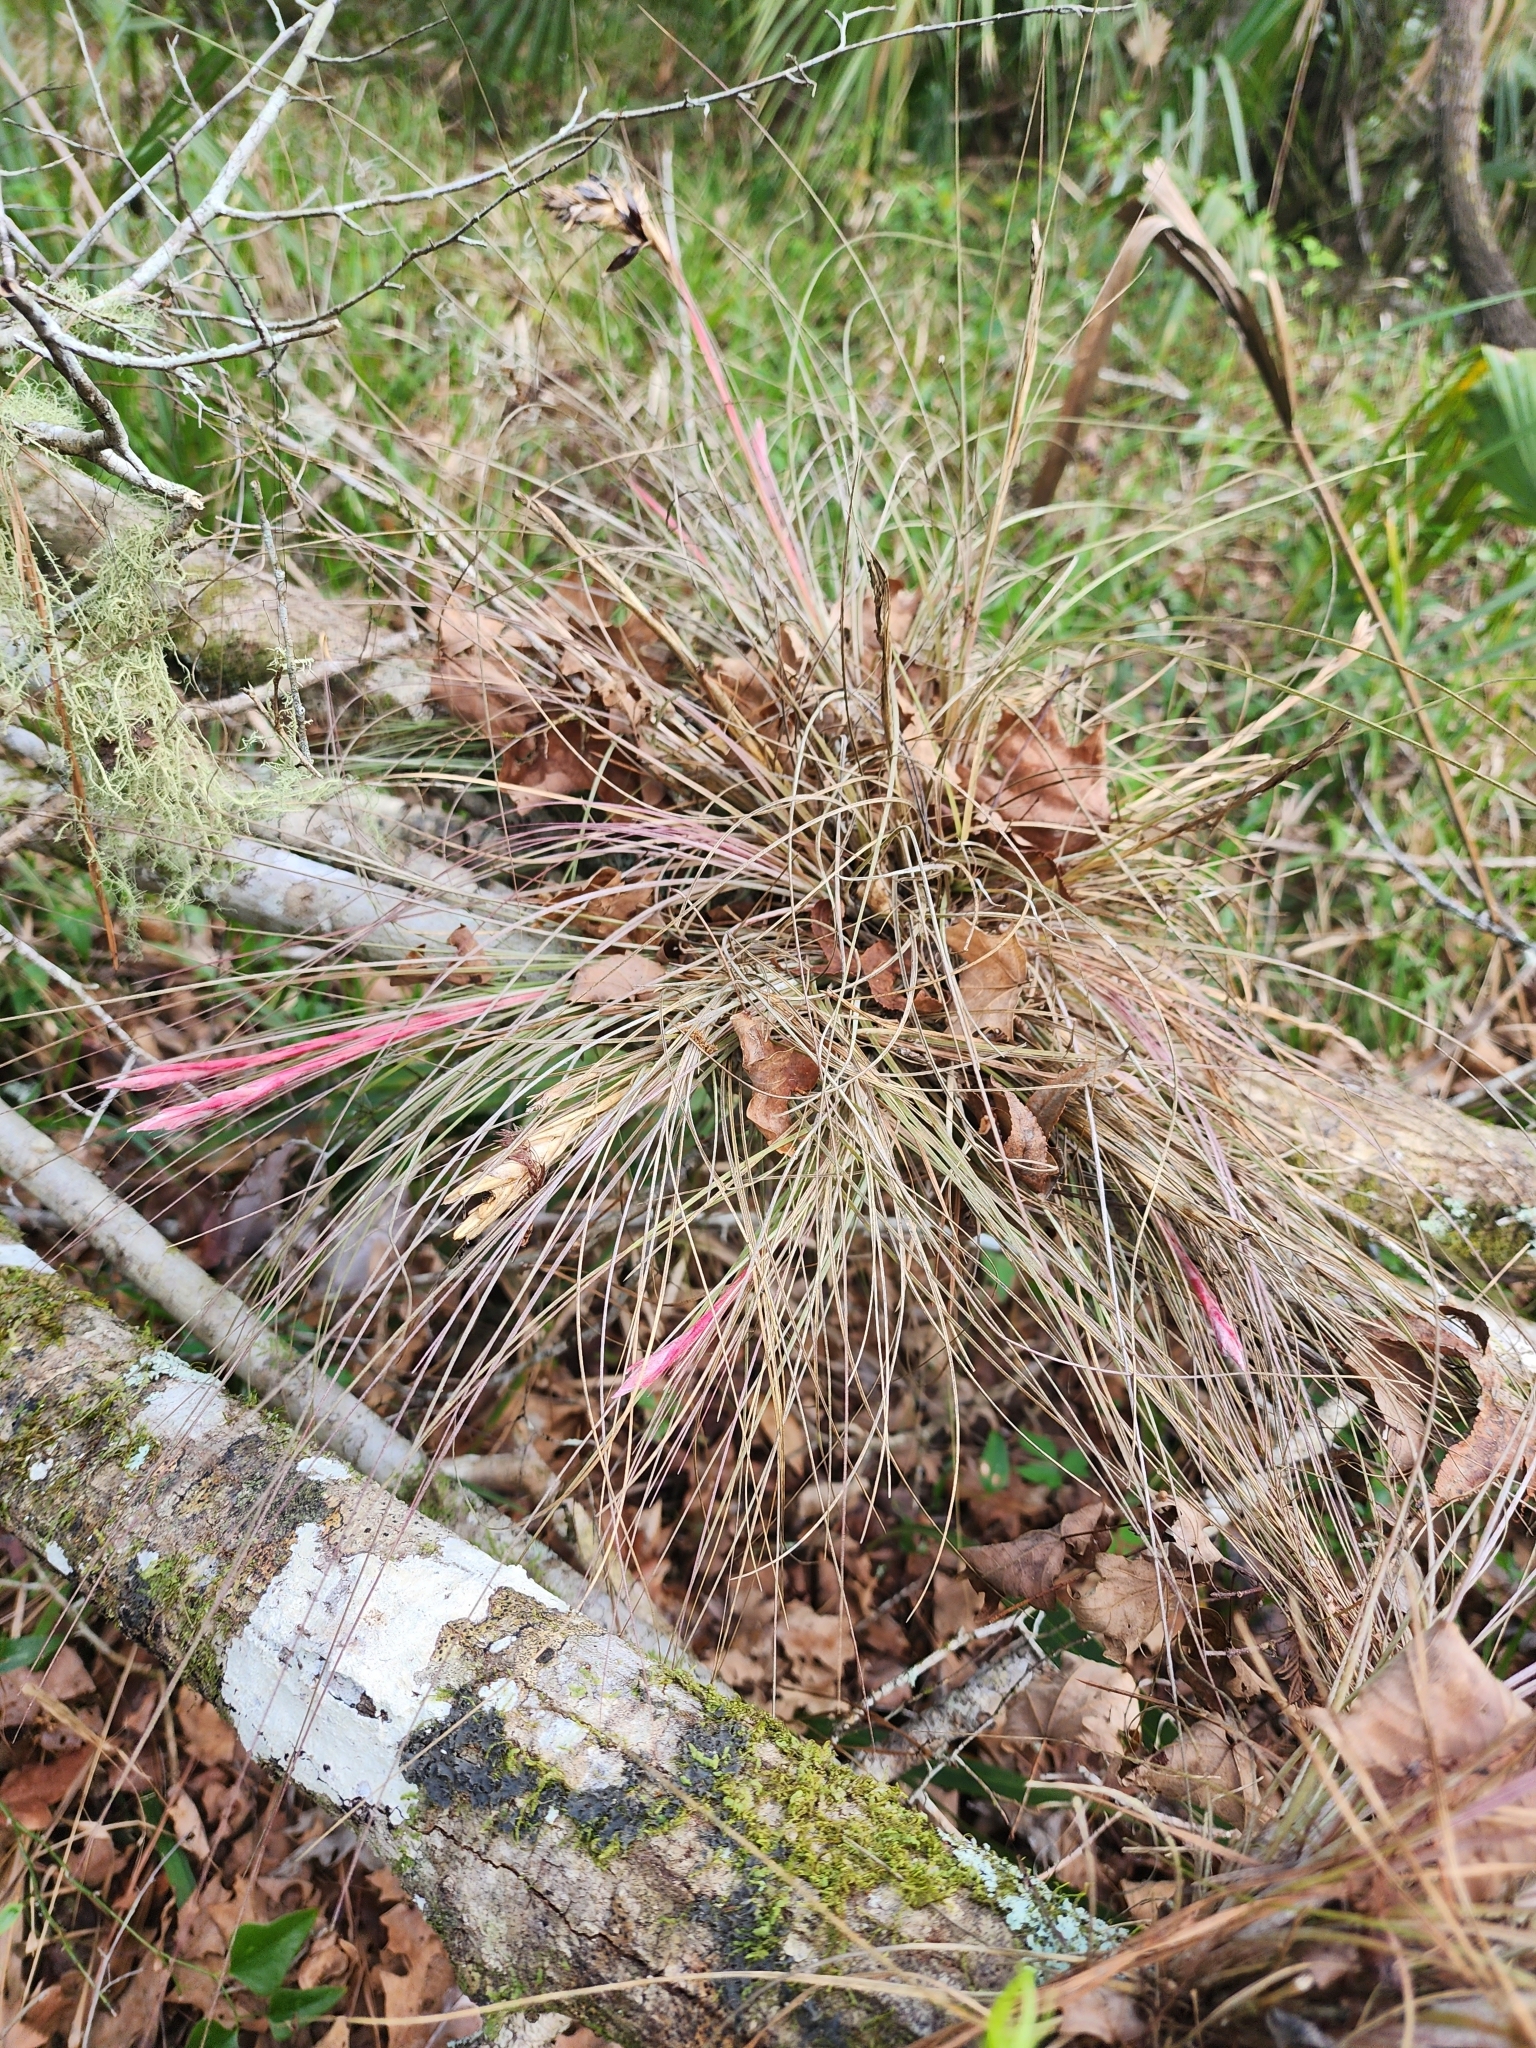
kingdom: Plantae
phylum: Tracheophyta
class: Liliopsida
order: Poales
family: Bromeliaceae
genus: Tillandsia
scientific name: Tillandsia bartramii
